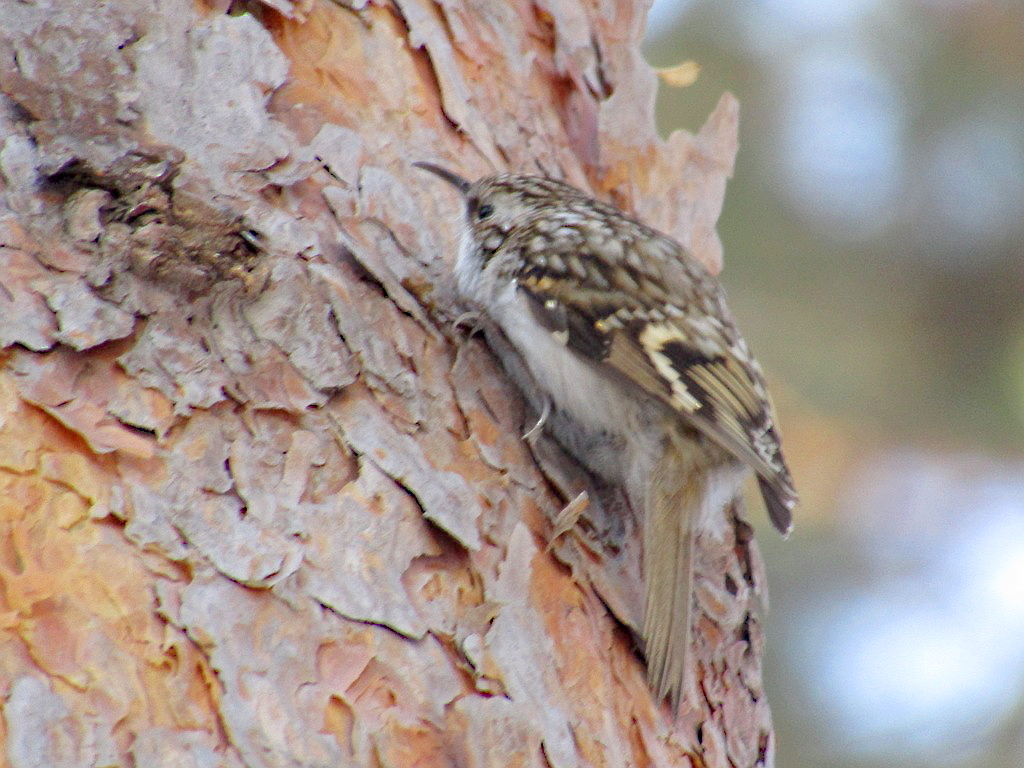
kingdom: Animalia
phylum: Chordata
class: Aves
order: Passeriformes
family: Certhiidae
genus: Certhia
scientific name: Certhia familiaris
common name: Eurasian treecreeper
